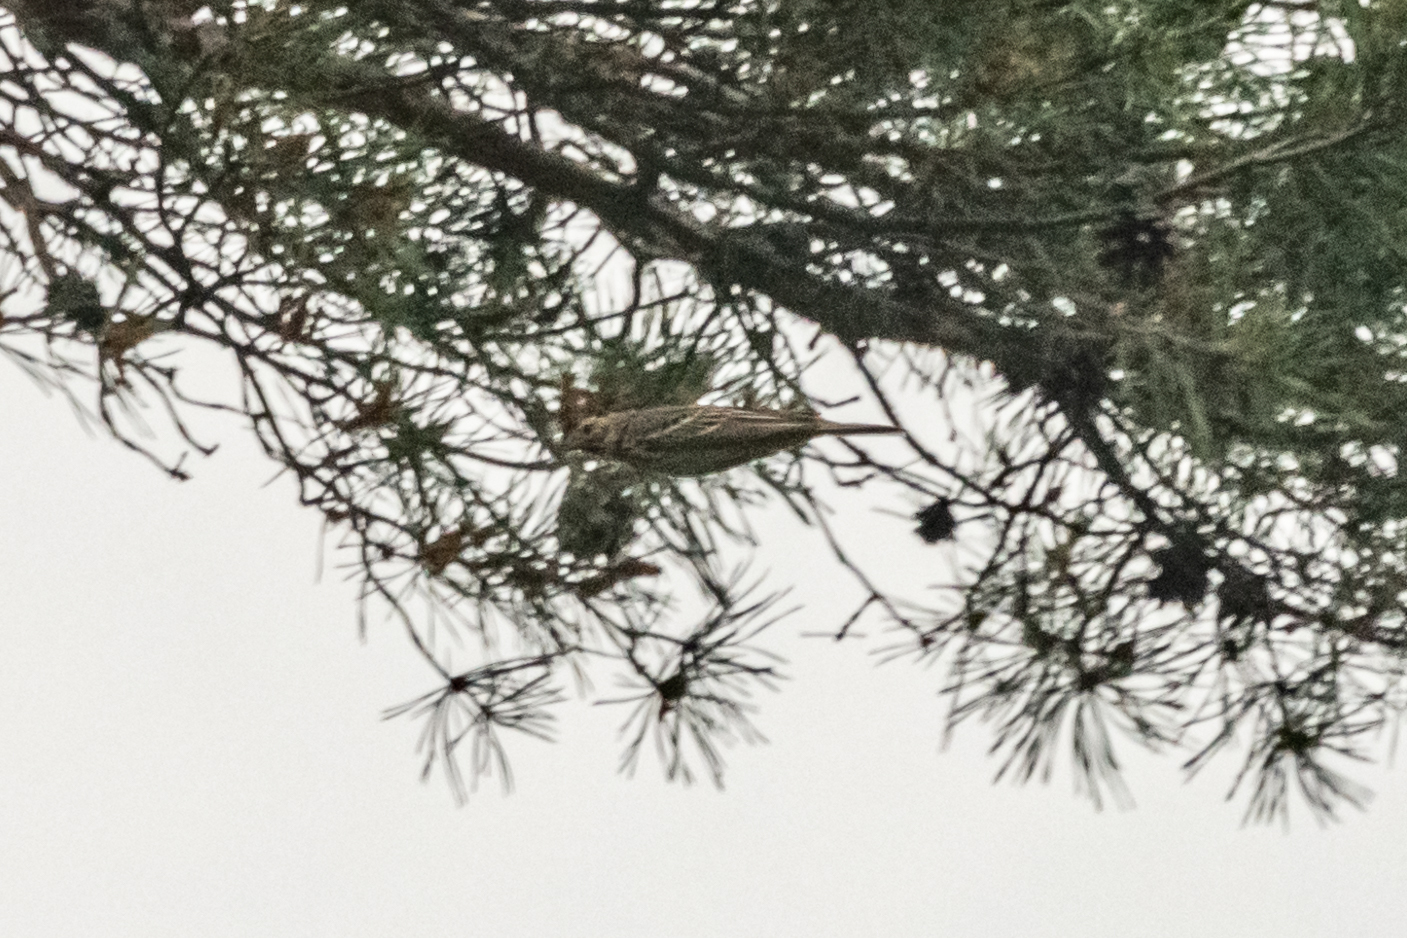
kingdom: Animalia
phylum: Chordata
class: Aves
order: Passeriformes
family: Motacillidae
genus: Anthus
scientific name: Anthus trivialis
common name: Tree pipit
